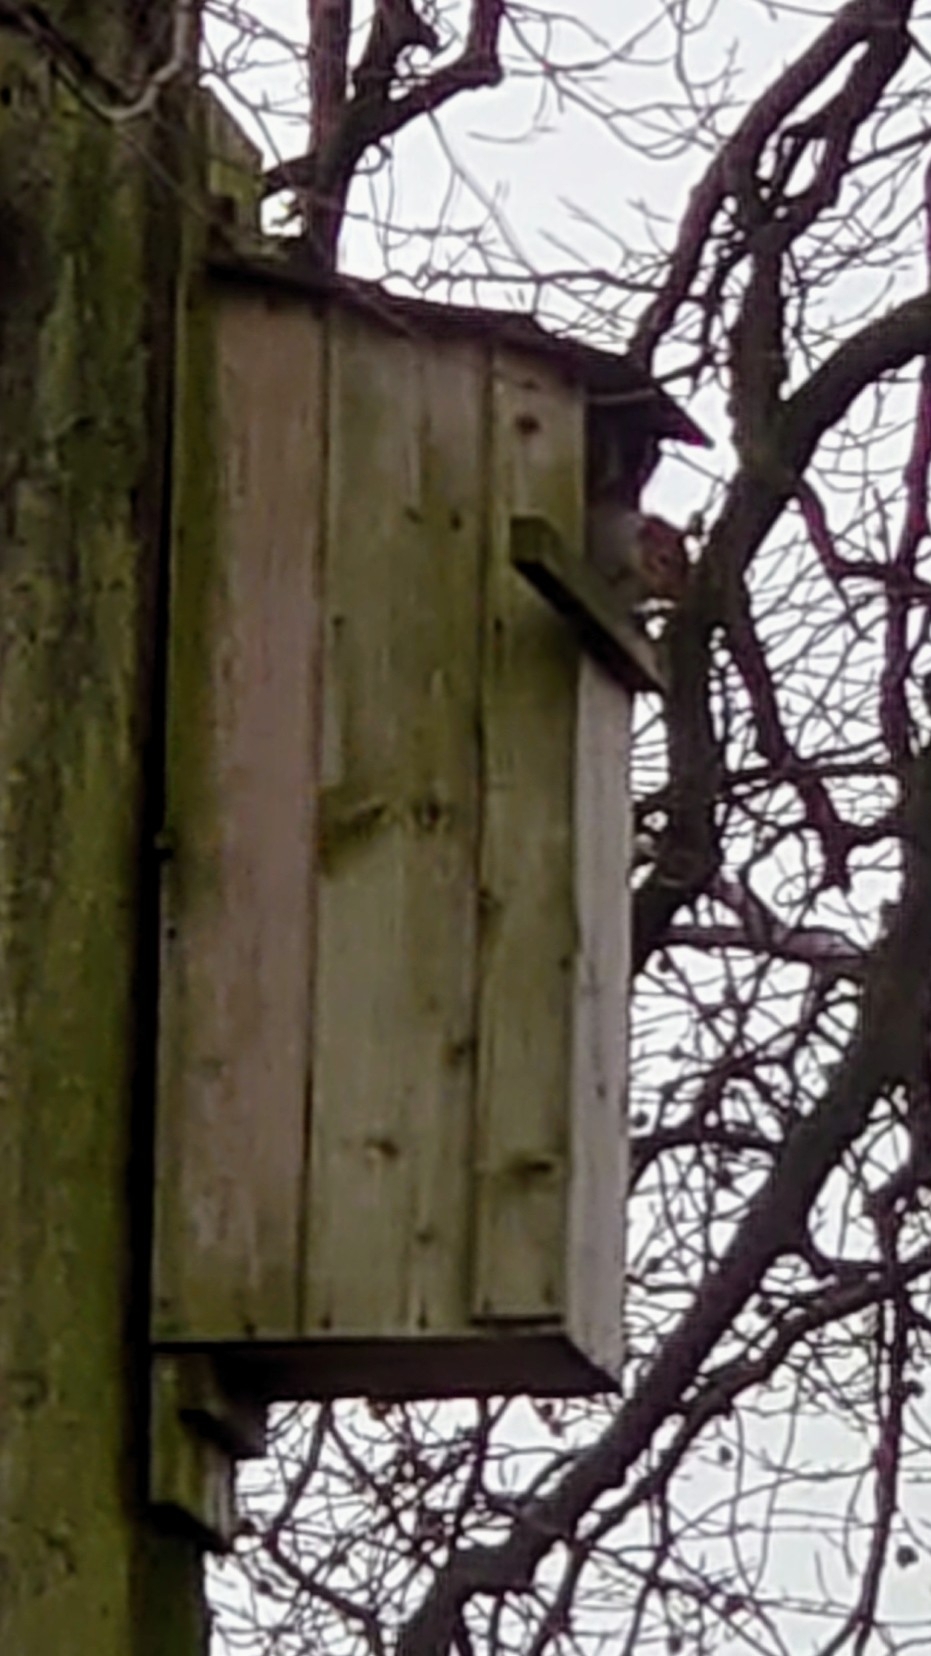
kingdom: Animalia
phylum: Chordata
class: Mammalia
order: Rodentia
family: Sciuridae
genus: Sciurus
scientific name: Sciurus carolinensis
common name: Eastern gray squirrel
